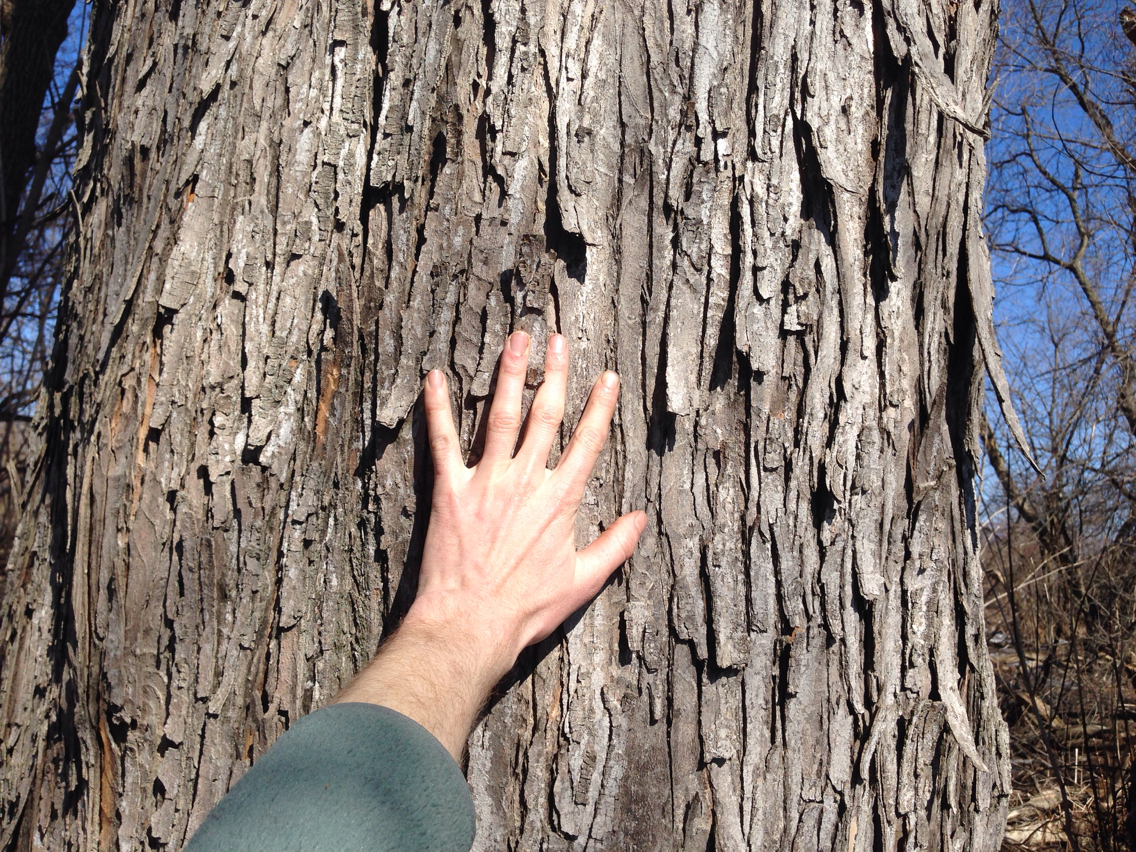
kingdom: Plantae
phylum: Tracheophyta
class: Magnoliopsida
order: Sapindales
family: Sapindaceae
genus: Acer
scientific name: Acer saccharinum
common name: Silver maple
